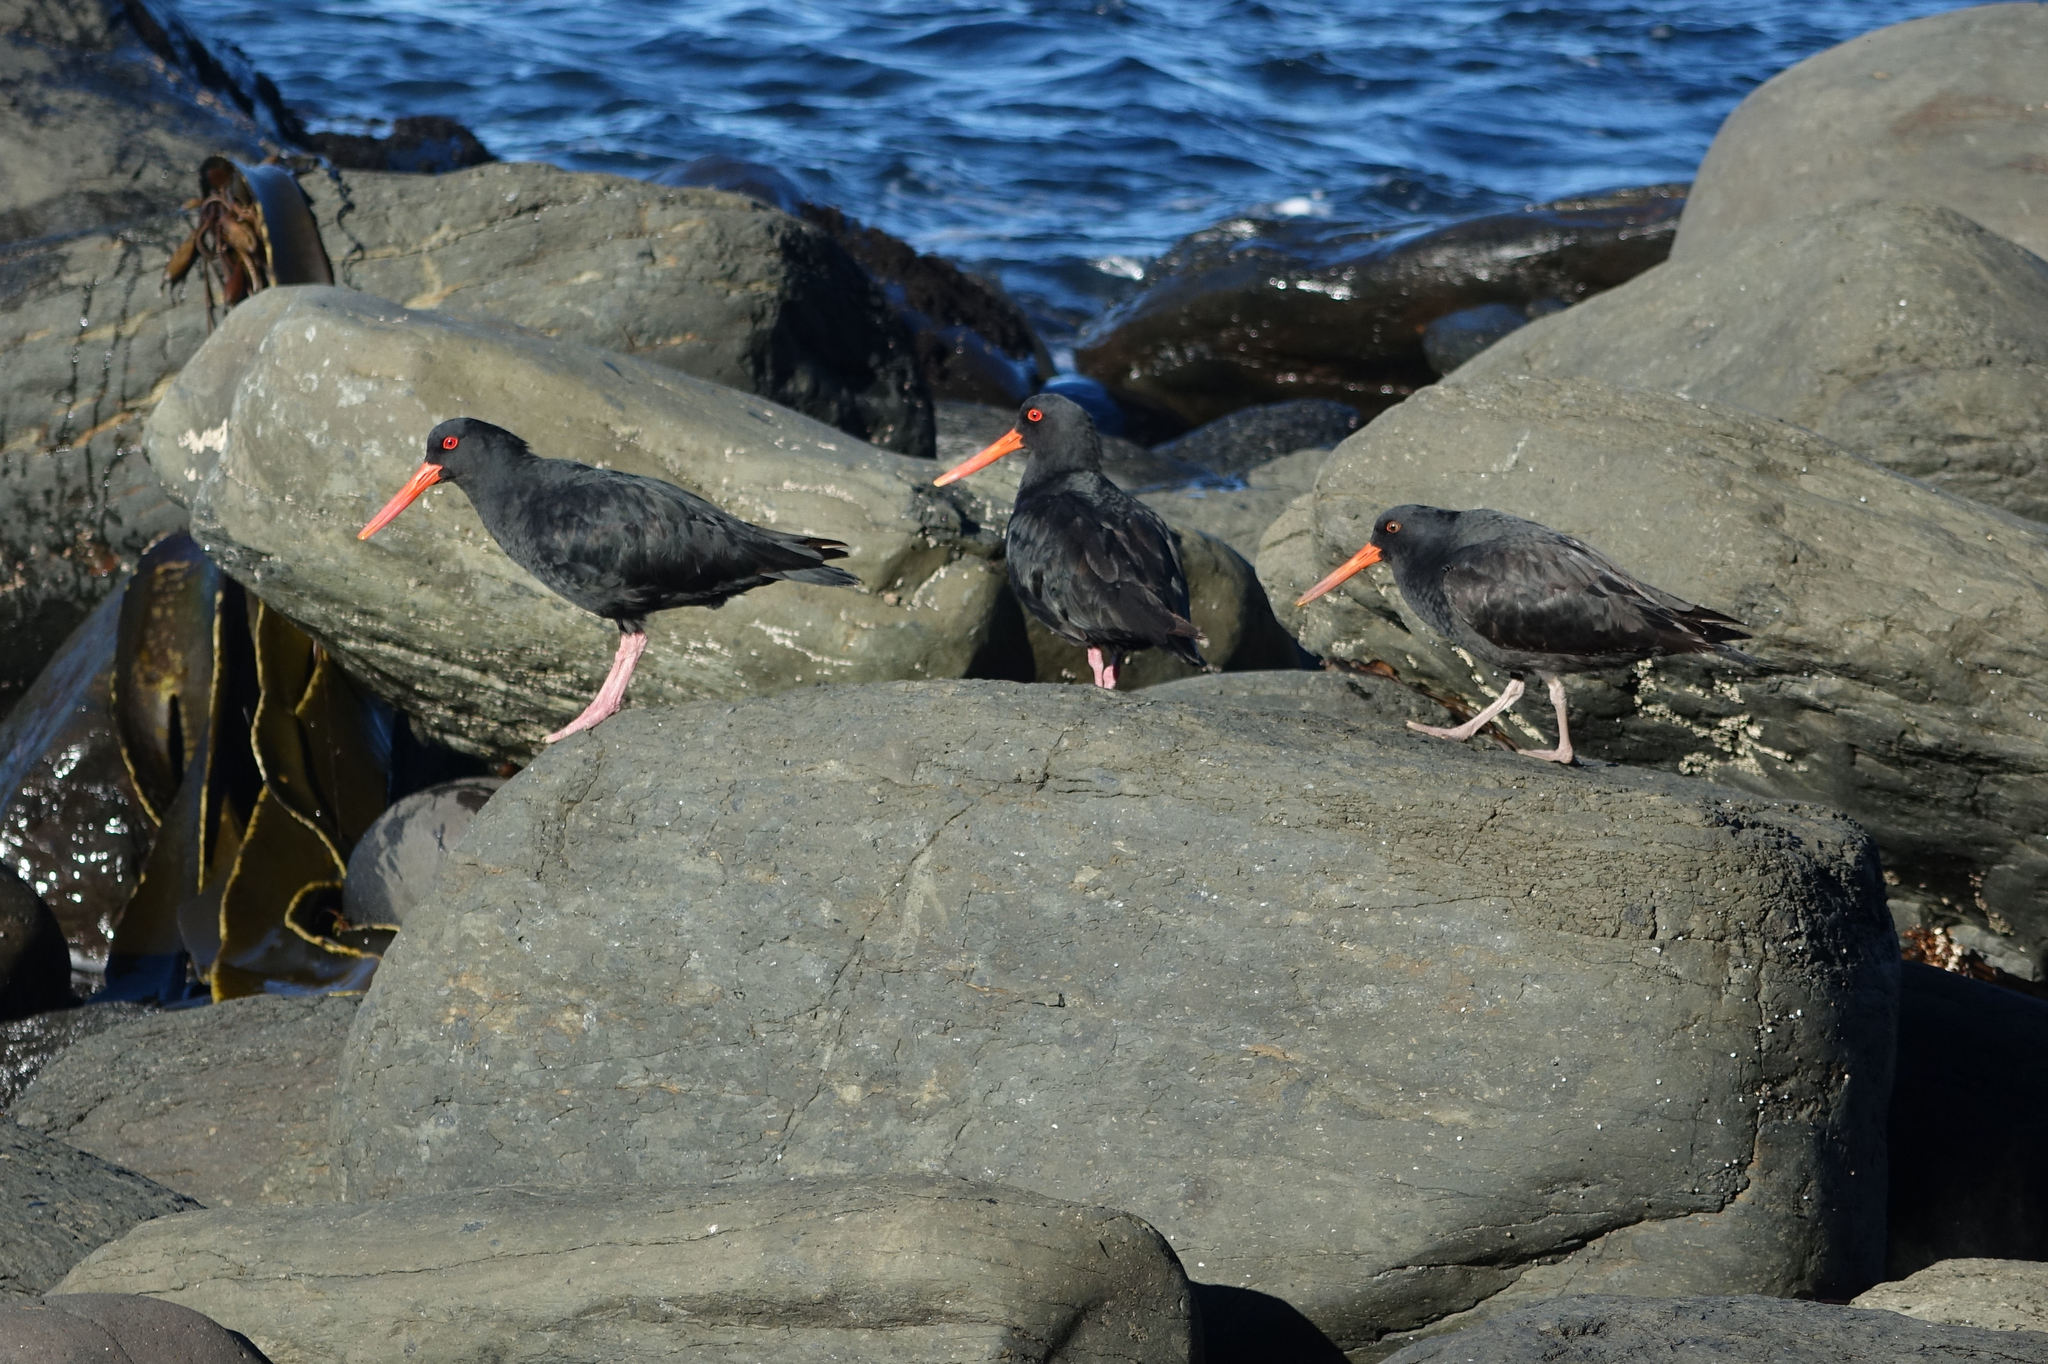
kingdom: Animalia
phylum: Chordata
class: Aves
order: Charadriiformes
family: Haematopodidae
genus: Haematopus
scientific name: Haematopus unicolor
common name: Variable oystercatcher
